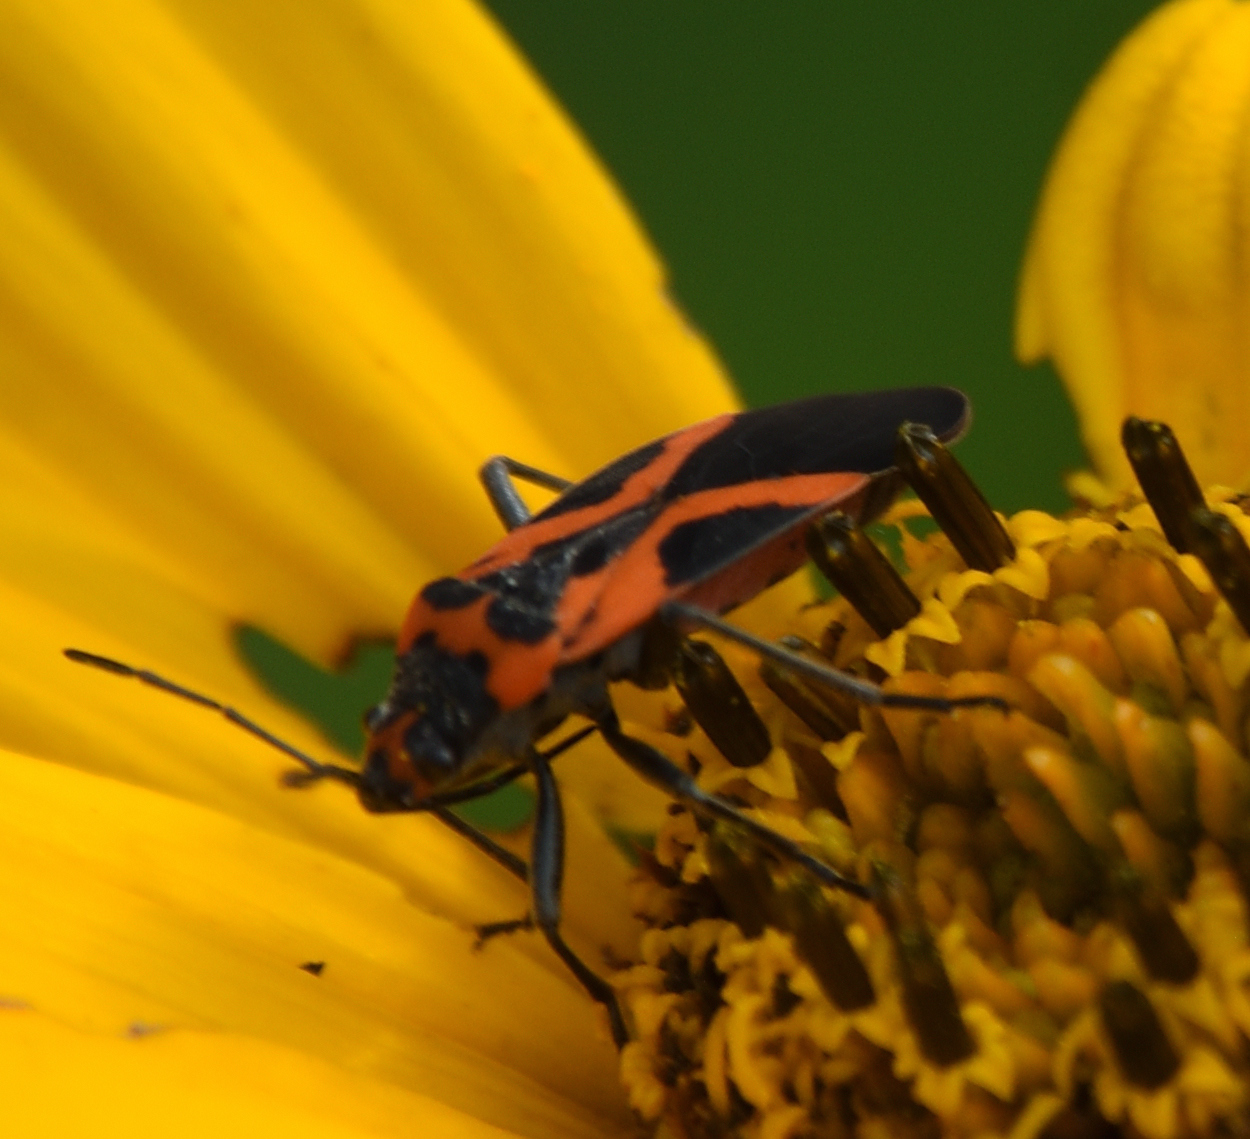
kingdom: Animalia
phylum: Arthropoda
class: Insecta
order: Hemiptera
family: Lygaeidae
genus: Lygaeus
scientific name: Lygaeus turcicus
